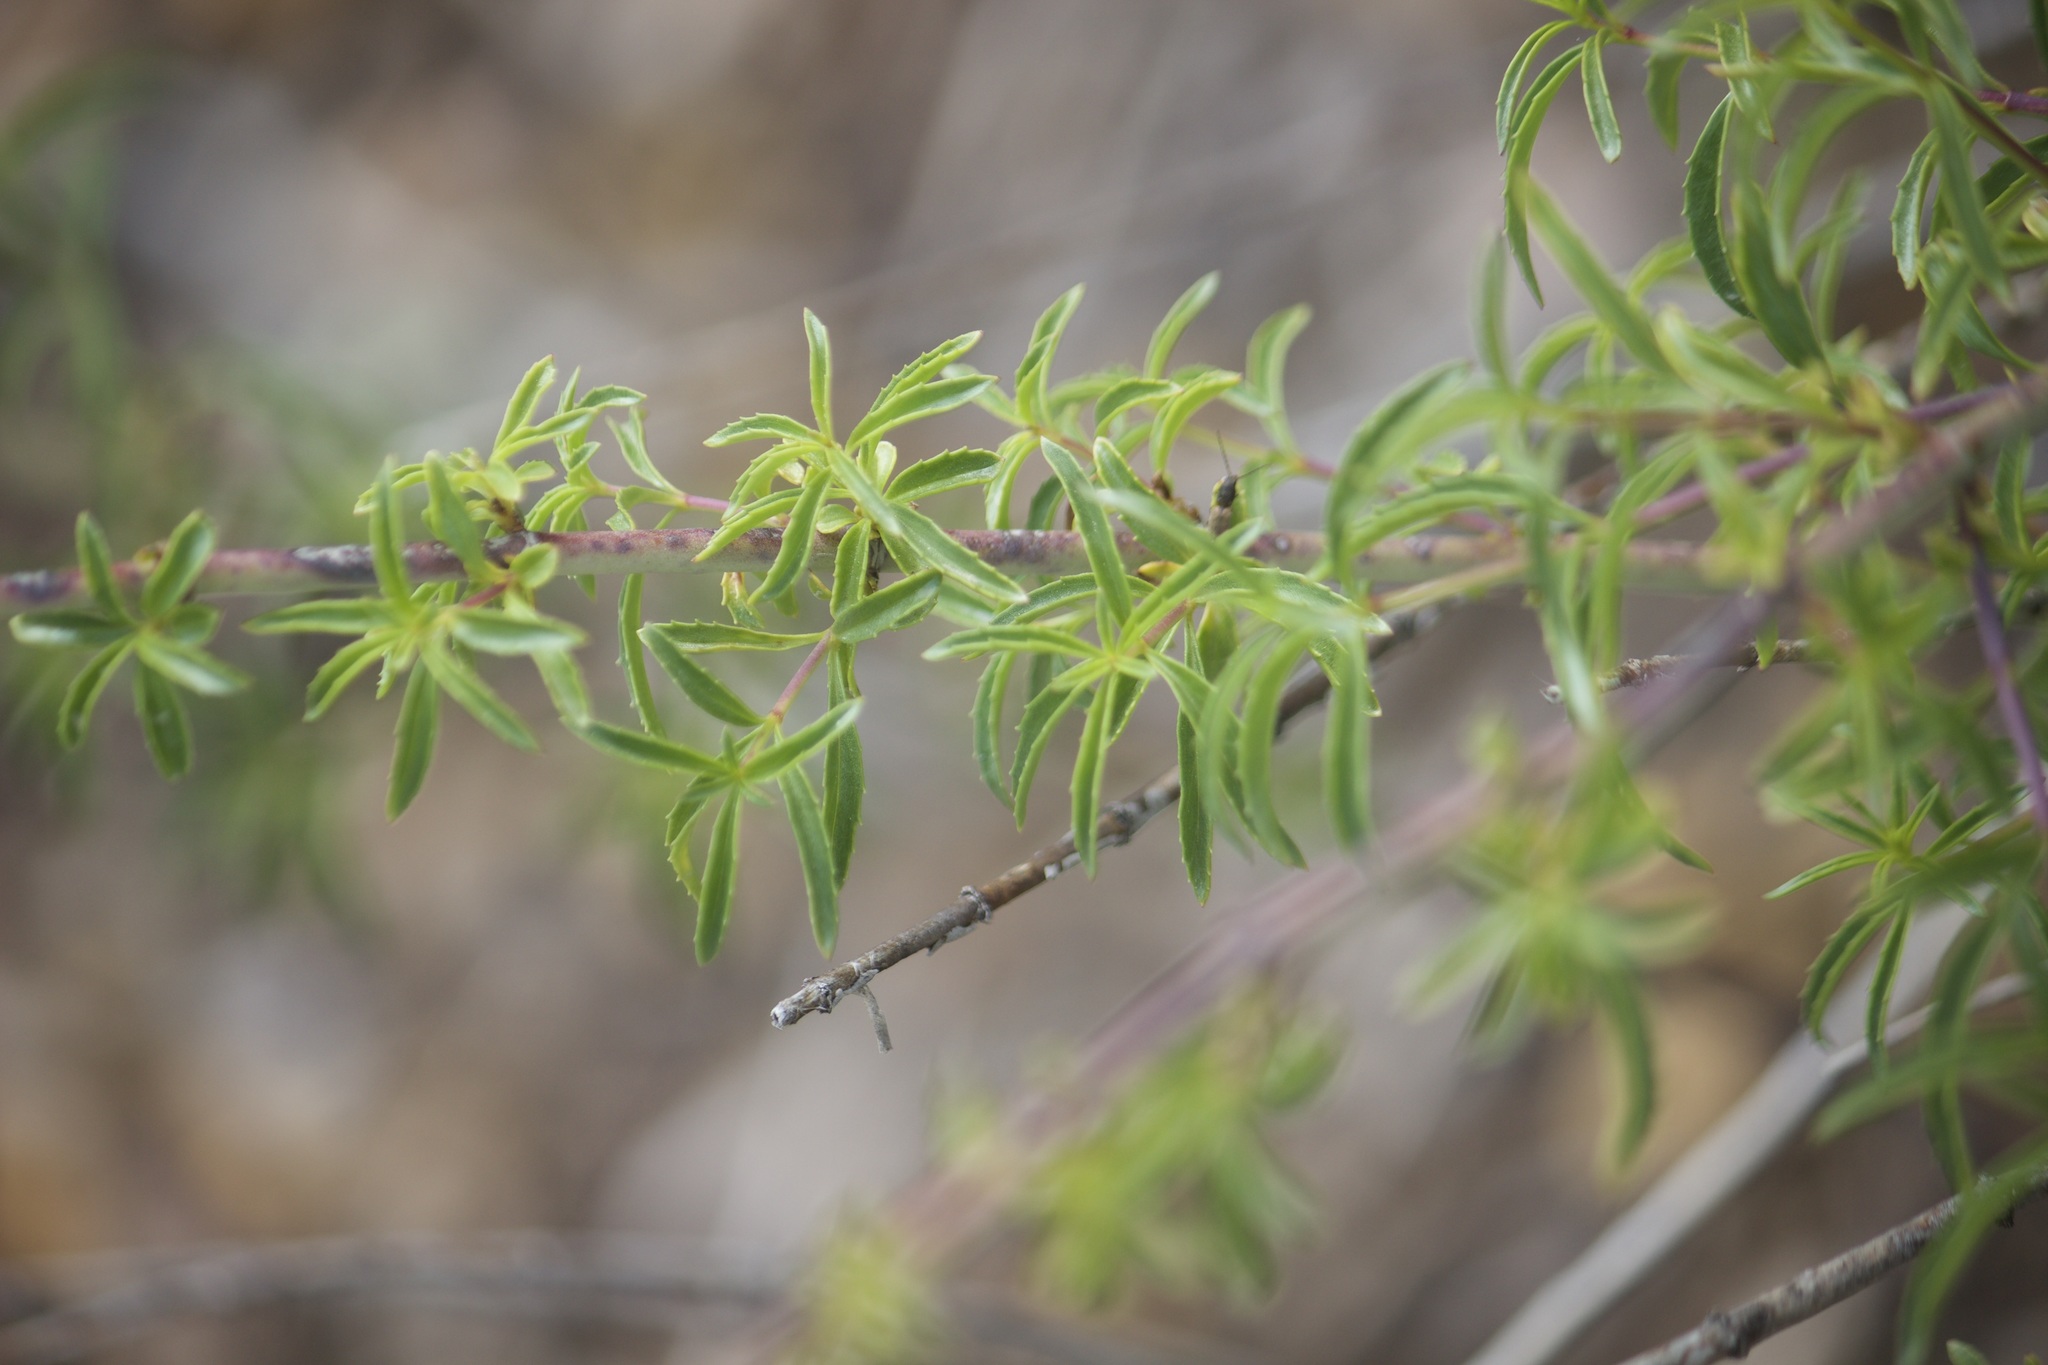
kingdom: Plantae
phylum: Tracheophyta
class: Magnoliopsida
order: Lamiales
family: Plantaginaceae
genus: Keckiella
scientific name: Keckiella ternata
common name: Scarlet keckiella
